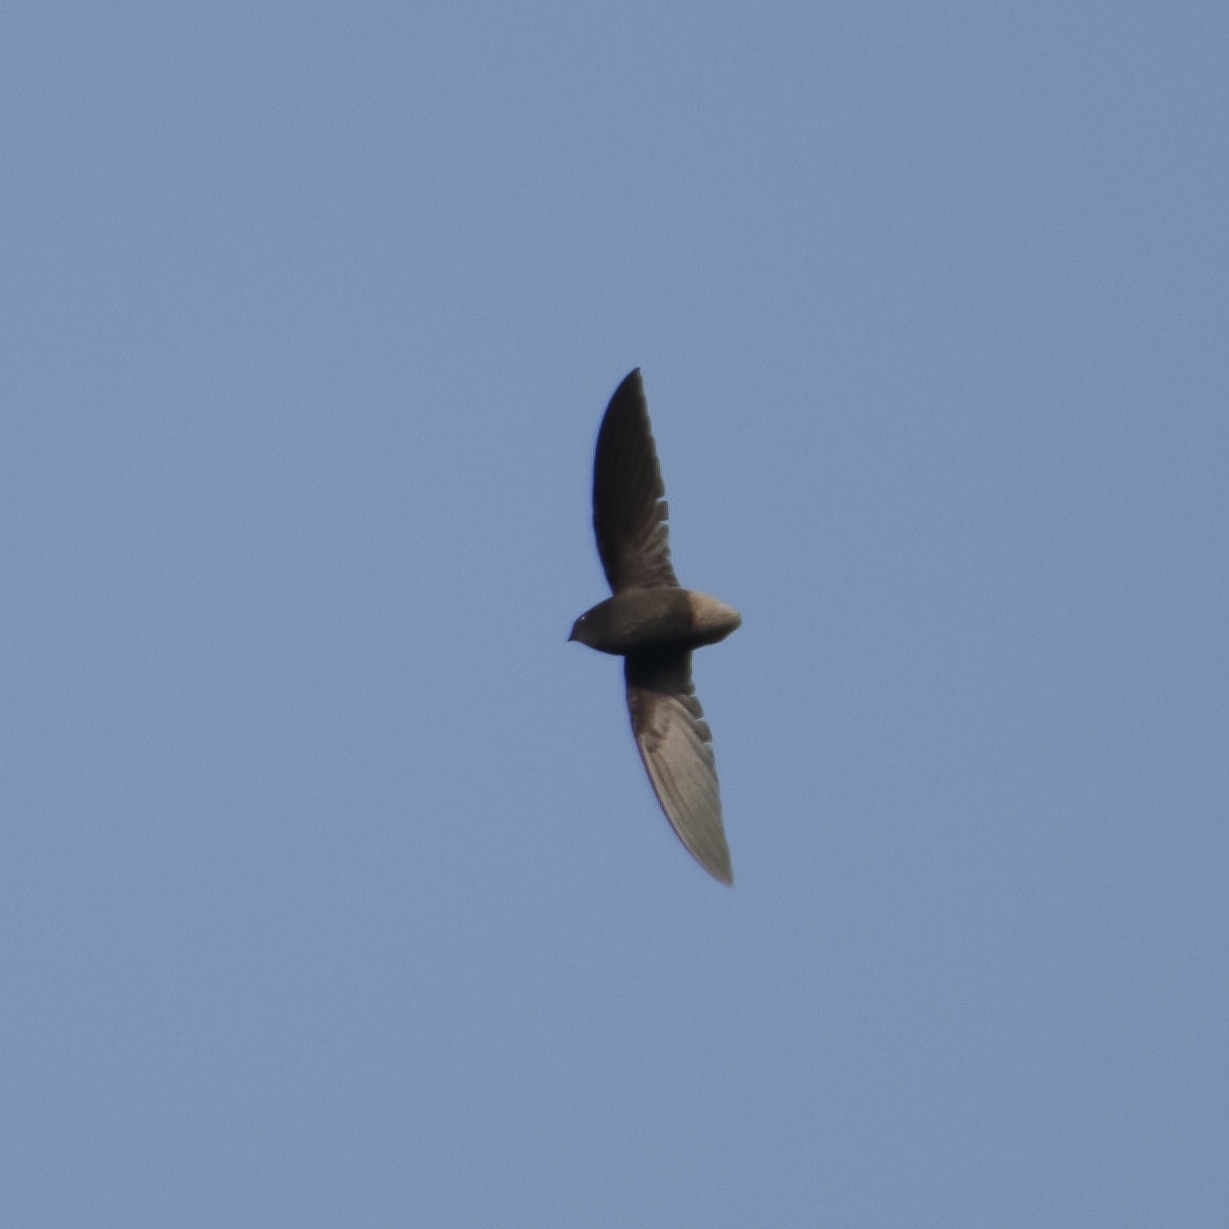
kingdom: Animalia
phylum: Chordata
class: Aves
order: Apodiformes
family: Apodidae
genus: Chaetura
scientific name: Chaetura brachyura
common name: Short-tailed swift
